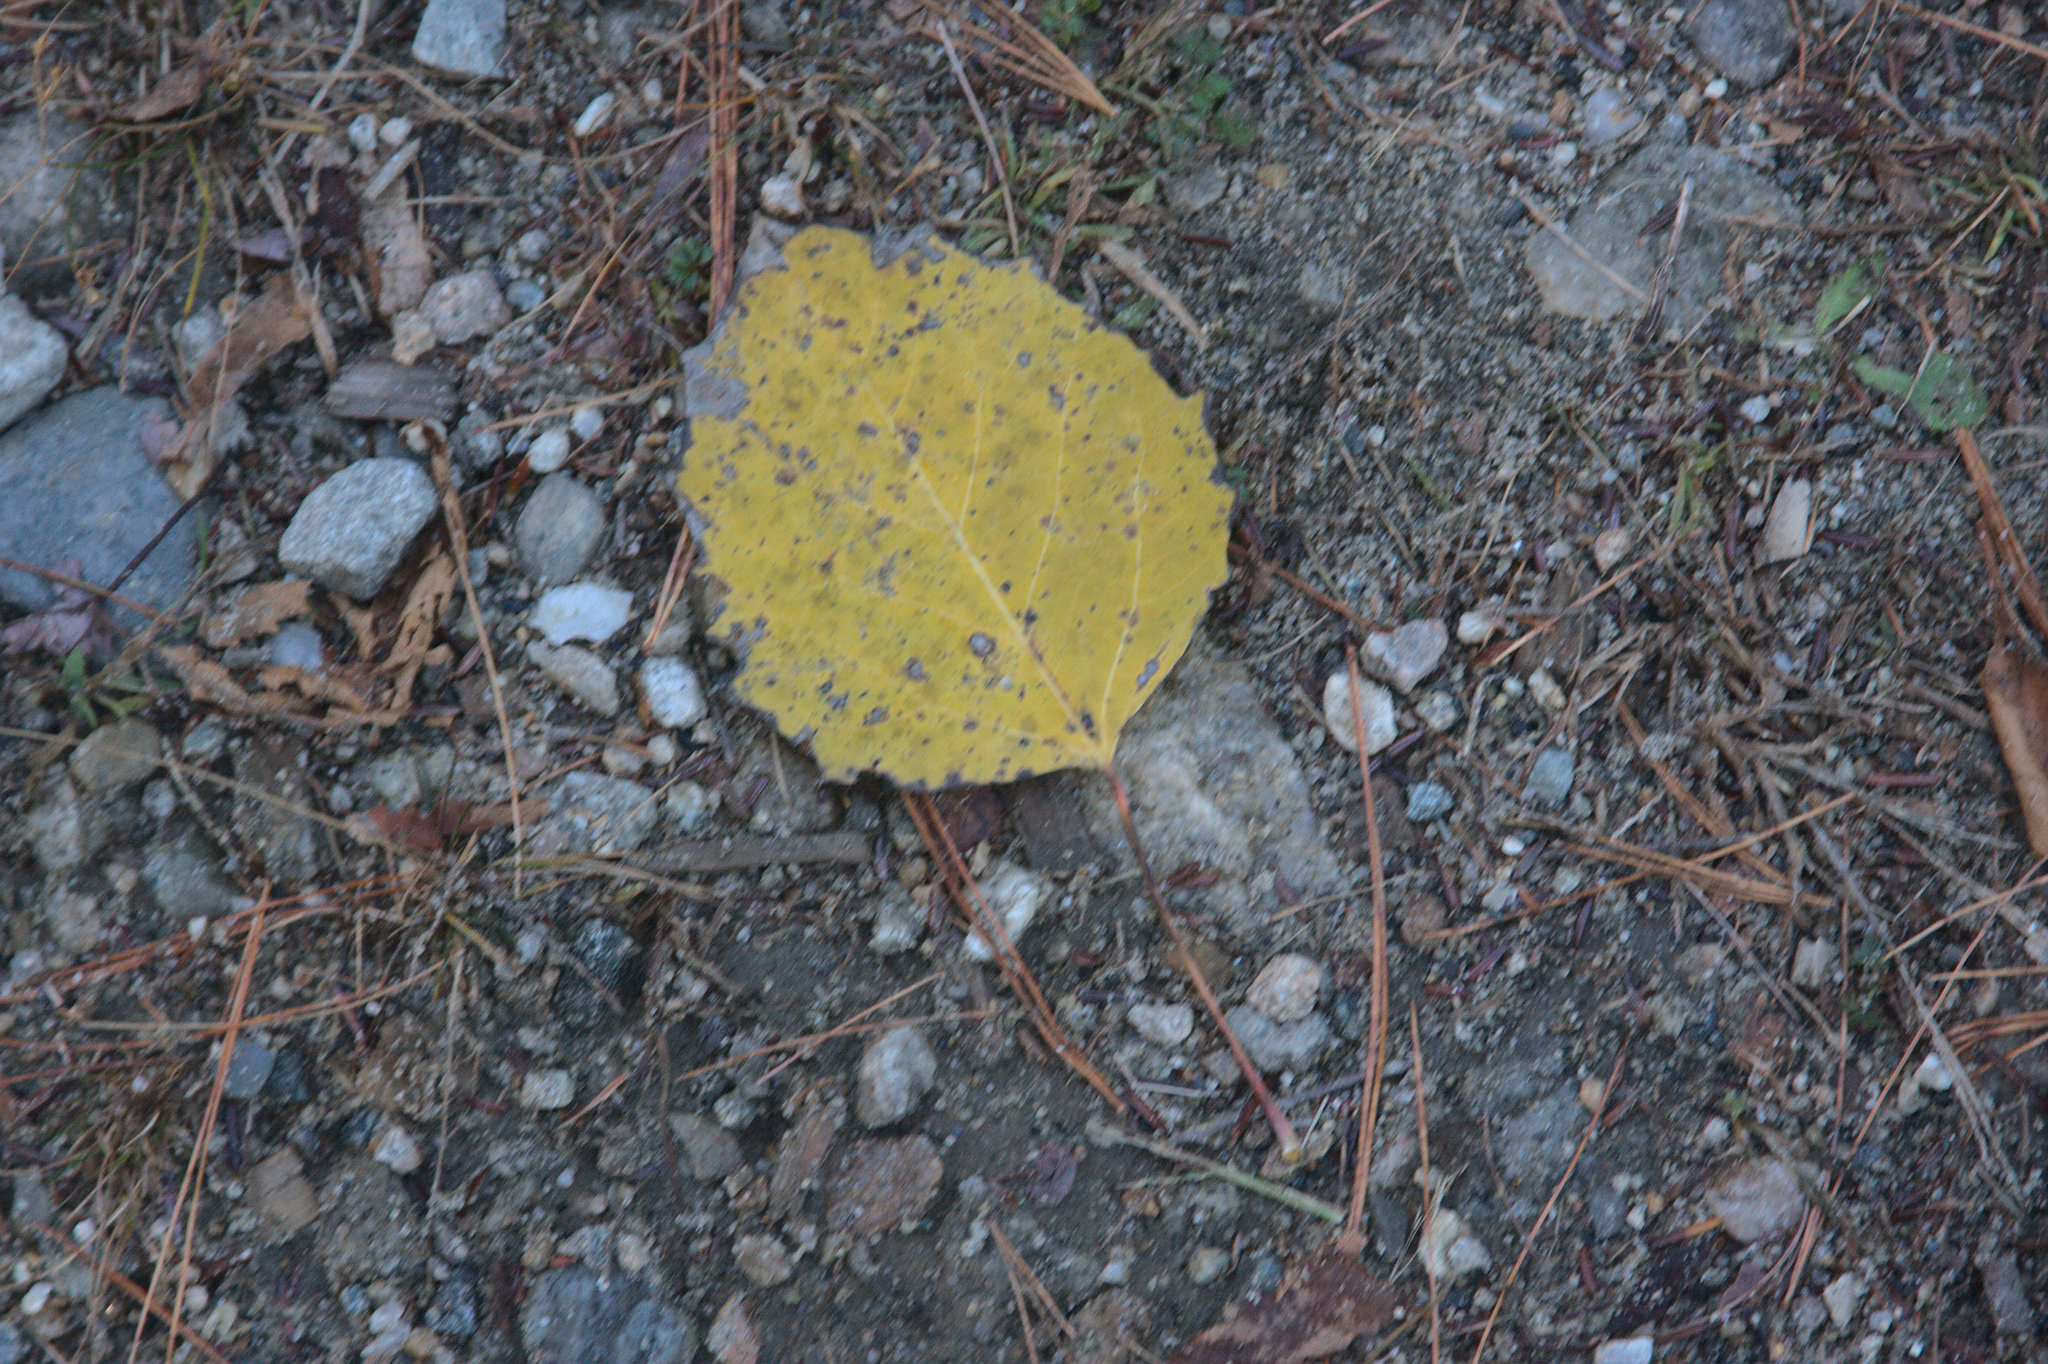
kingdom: Plantae
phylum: Tracheophyta
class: Magnoliopsida
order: Malpighiales
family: Salicaceae
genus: Populus
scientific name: Populus grandidentata
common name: Bigtooth aspen
